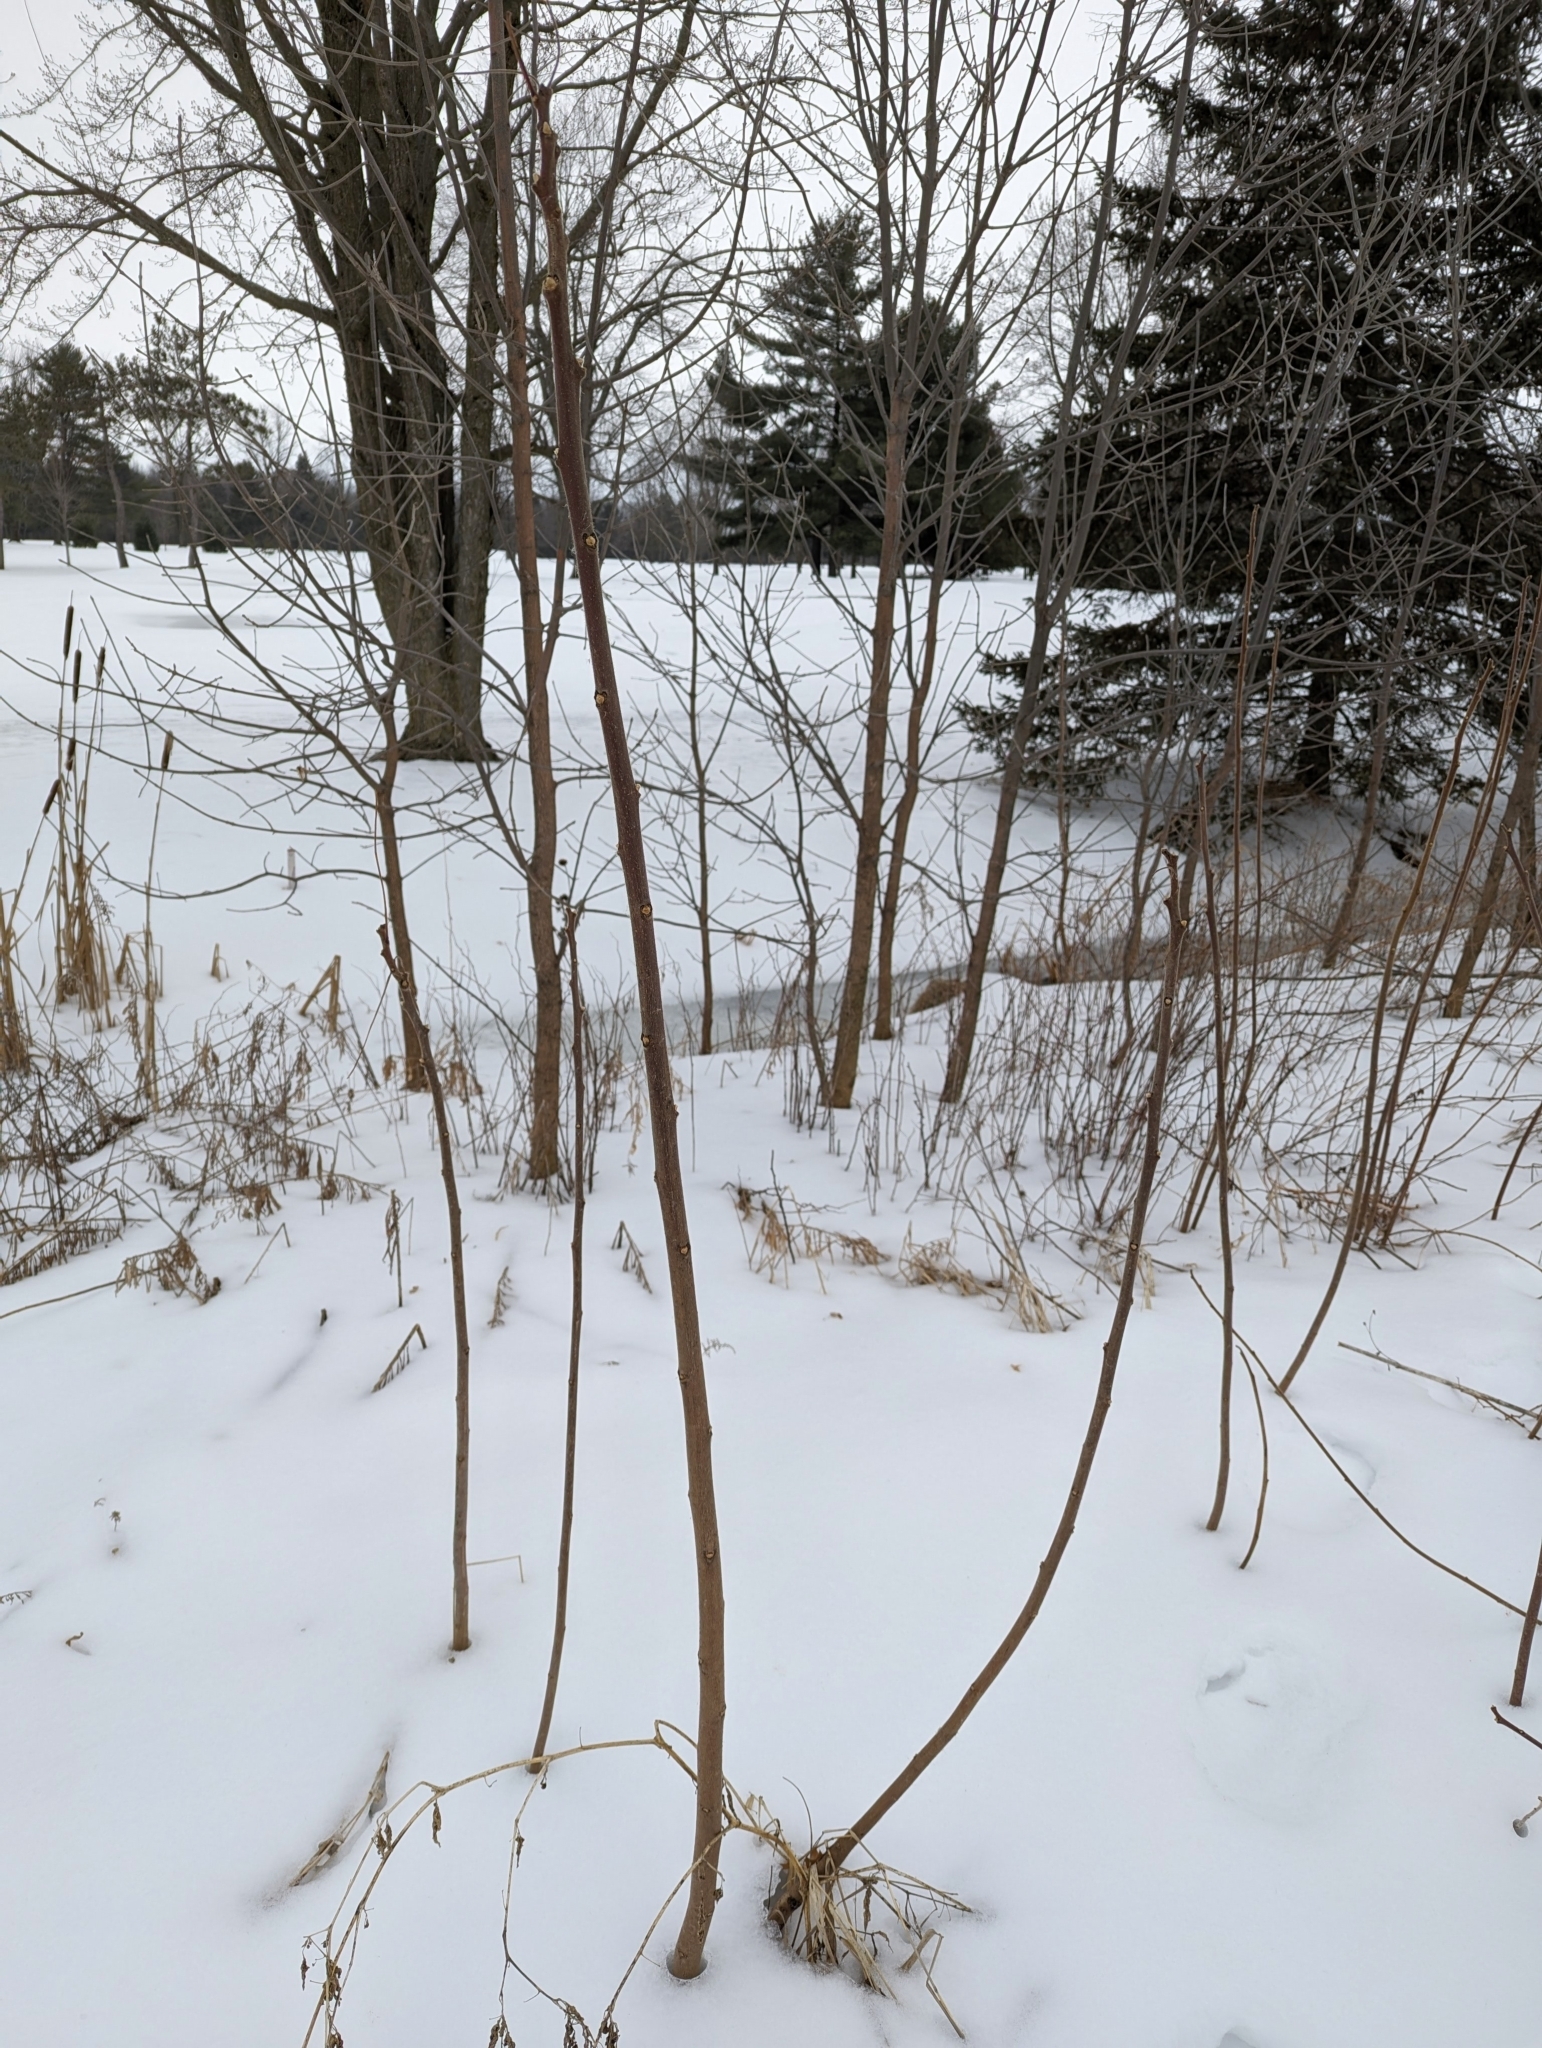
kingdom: Plantae
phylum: Tracheophyta
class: Magnoliopsida
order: Sapindales
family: Anacardiaceae
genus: Rhus
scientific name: Rhus typhina
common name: Staghorn sumac
